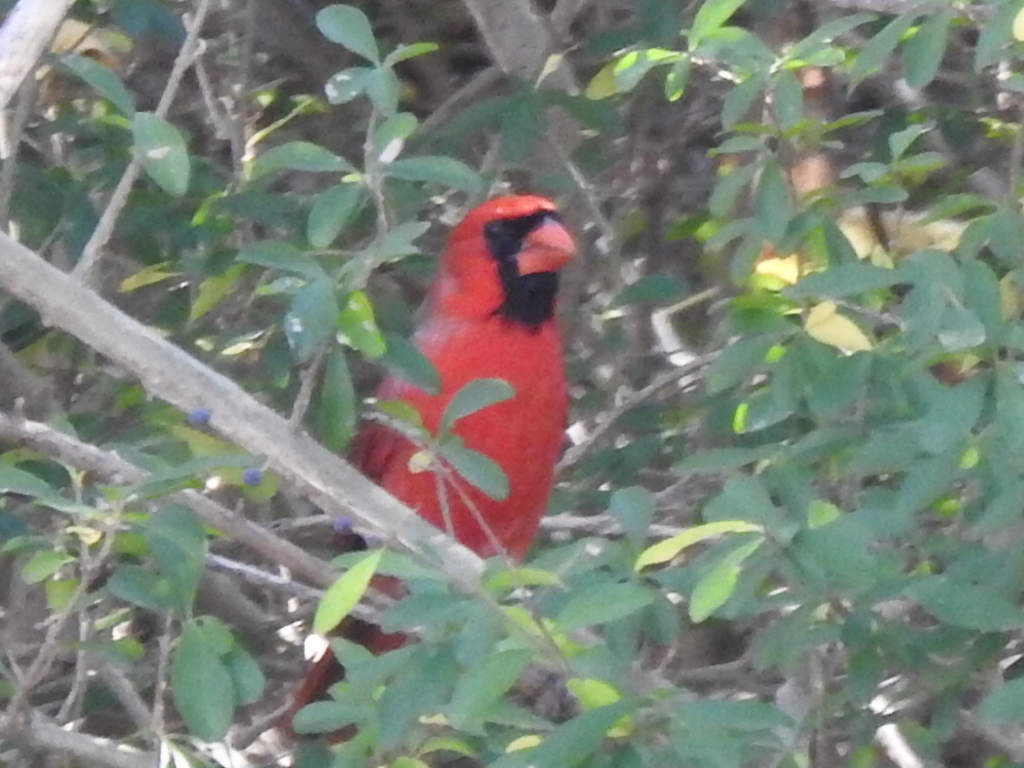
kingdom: Animalia
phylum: Chordata
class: Aves
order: Passeriformes
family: Cardinalidae
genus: Cardinalis
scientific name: Cardinalis cardinalis
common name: Northern cardinal
